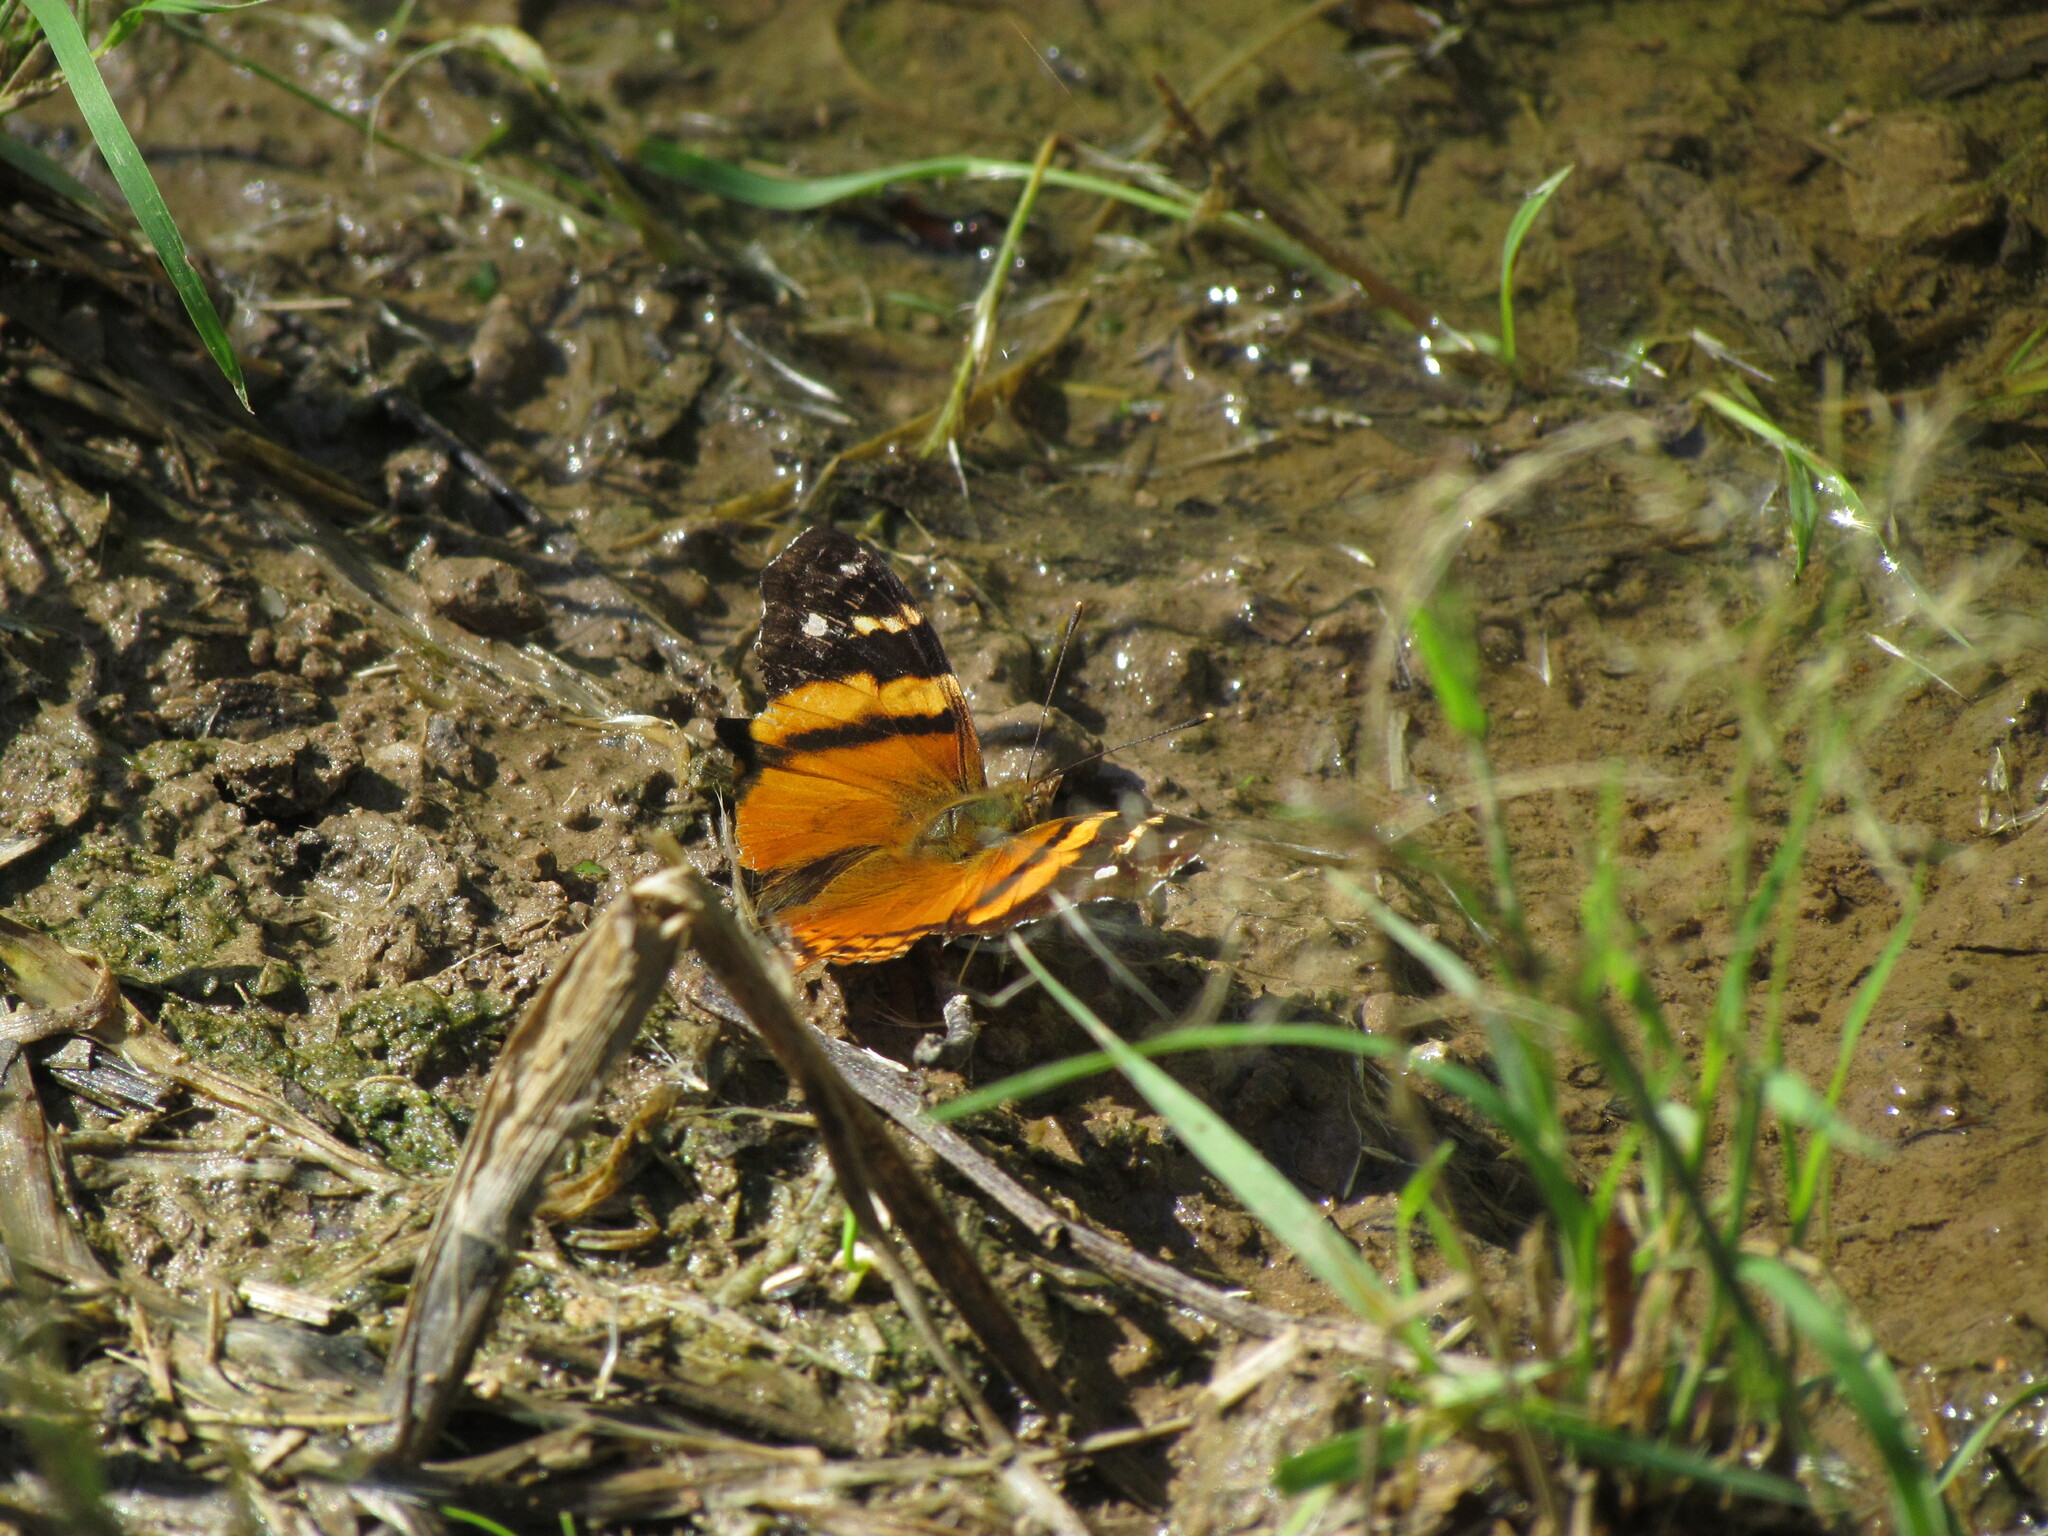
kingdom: Animalia
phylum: Arthropoda
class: Insecta
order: Lepidoptera
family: Nymphalidae
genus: Hypanartia
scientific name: Hypanartia bella
